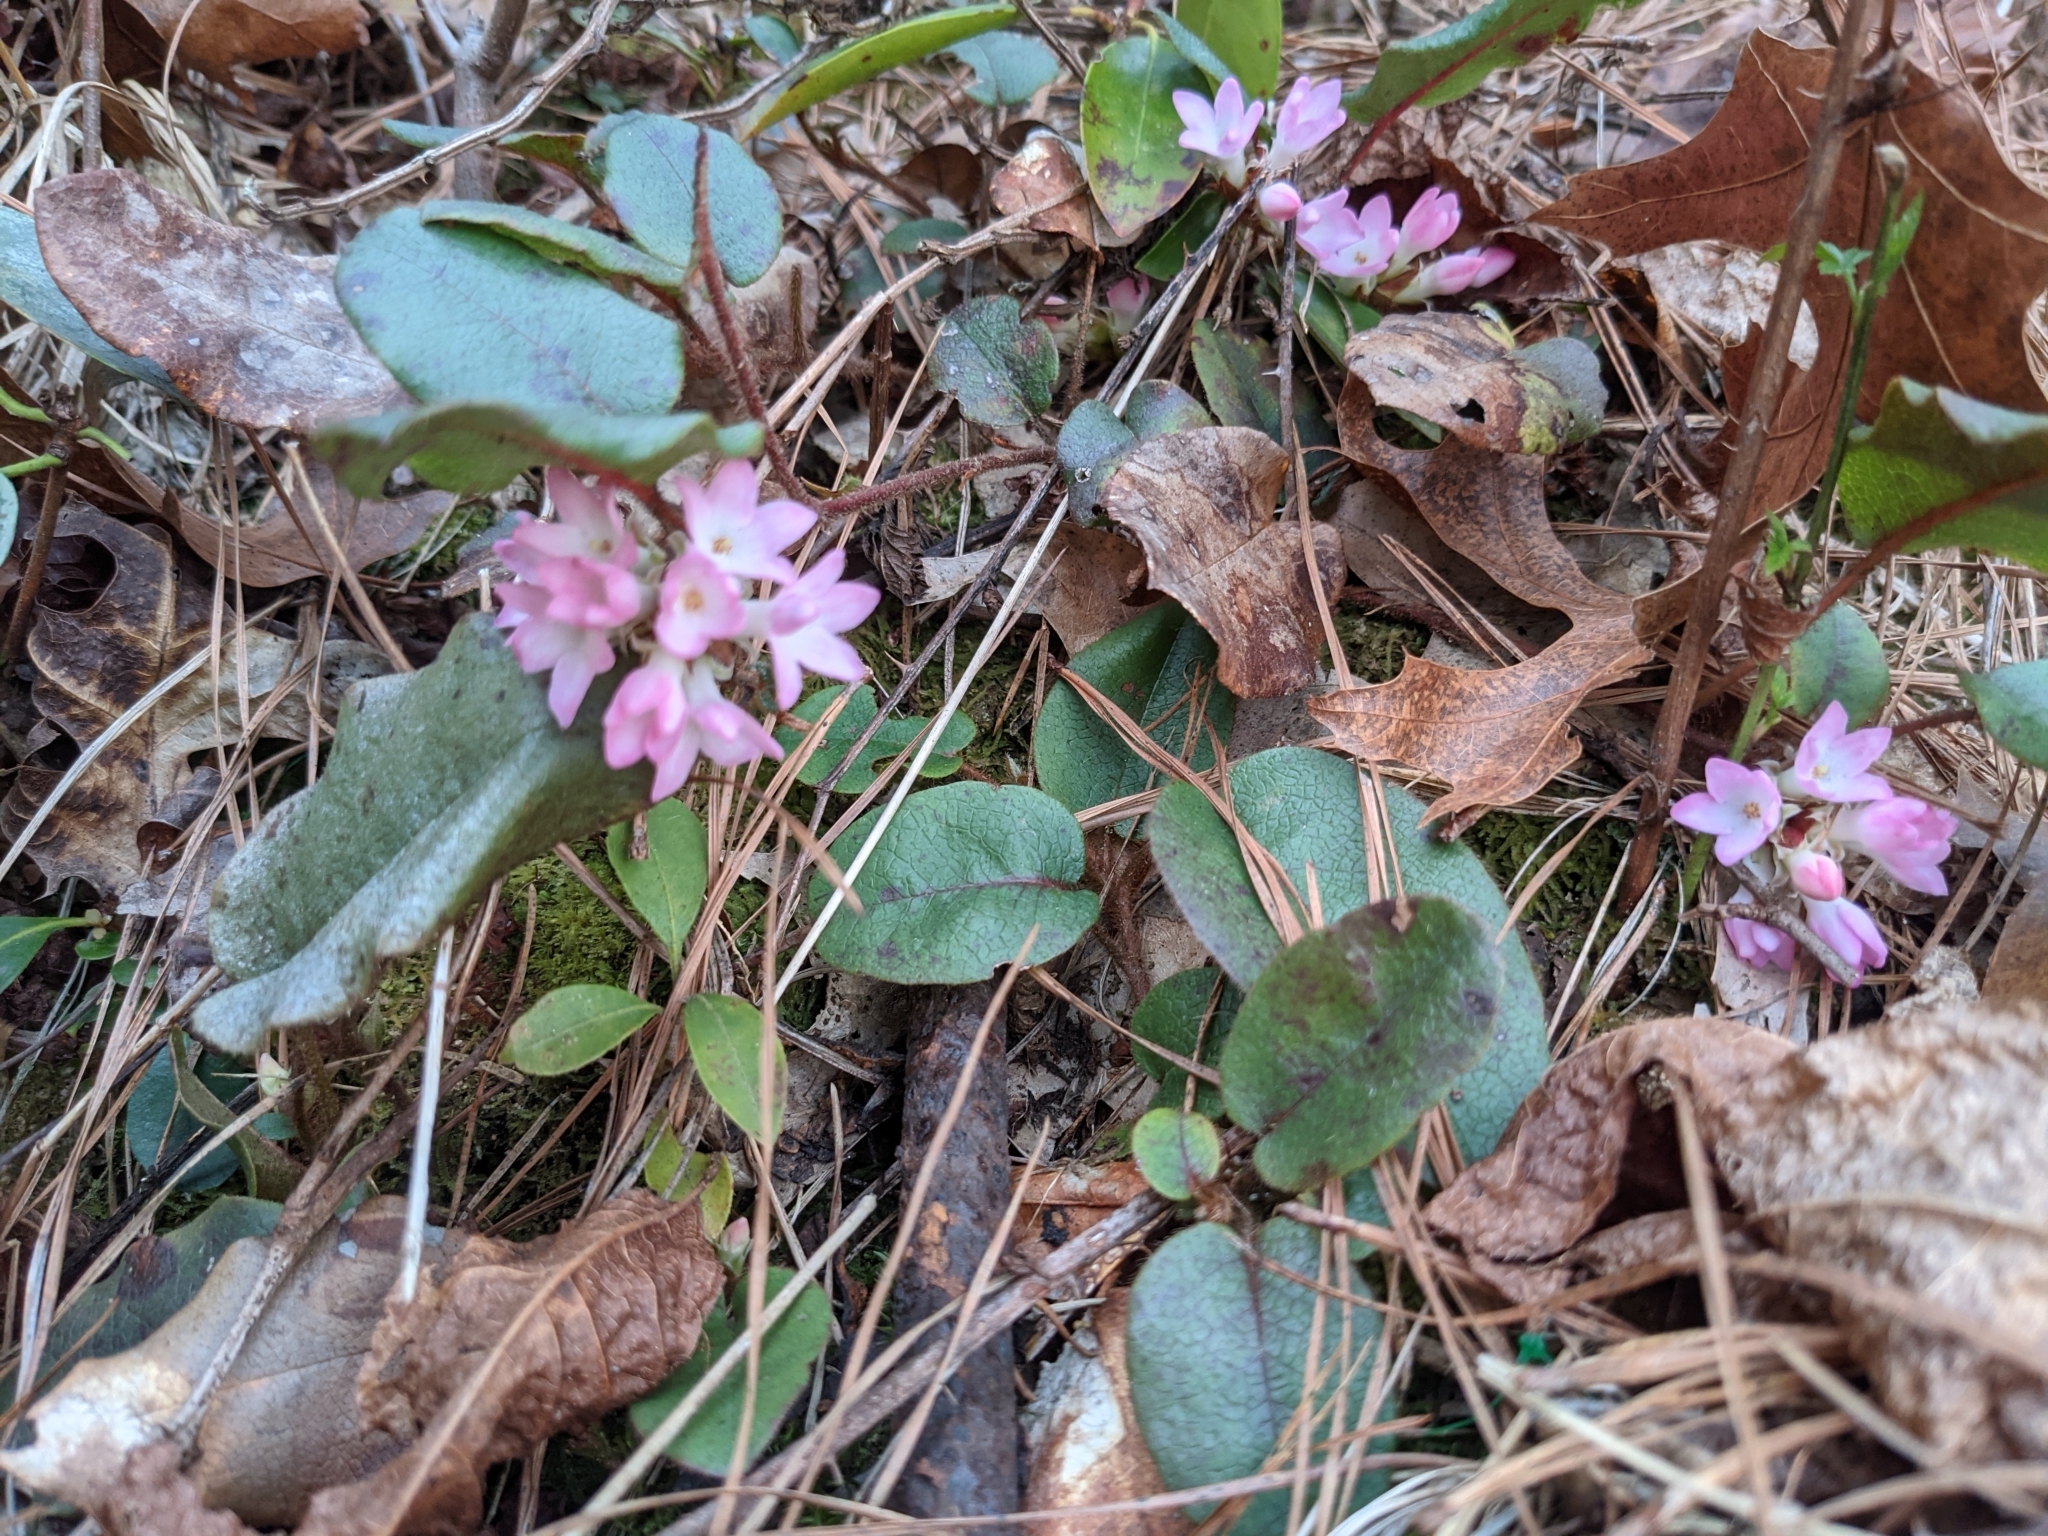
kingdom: Plantae
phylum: Tracheophyta
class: Magnoliopsida
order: Ericales
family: Ericaceae
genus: Epigaea
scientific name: Epigaea repens
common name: Gravelroot
